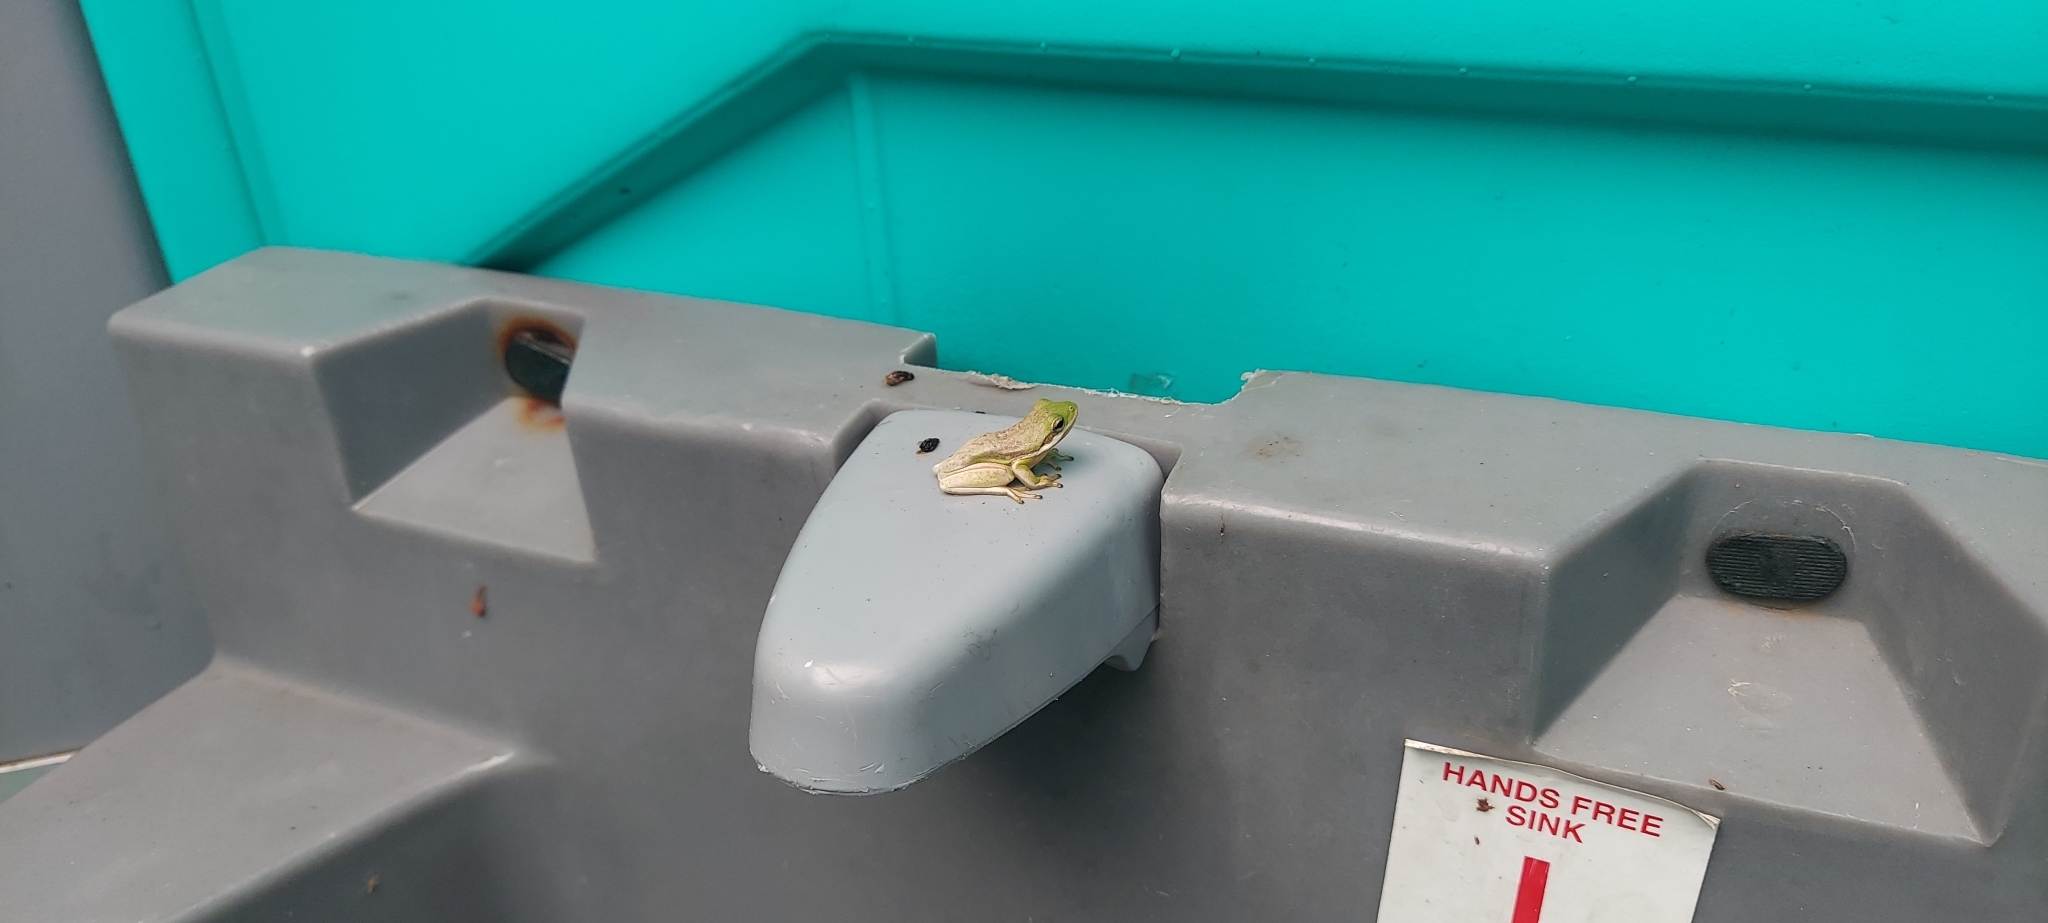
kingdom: Animalia
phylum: Chordata
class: Amphibia
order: Anura
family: Hylidae
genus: Dryophytes
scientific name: Dryophytes cinereus
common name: Green treefrog
